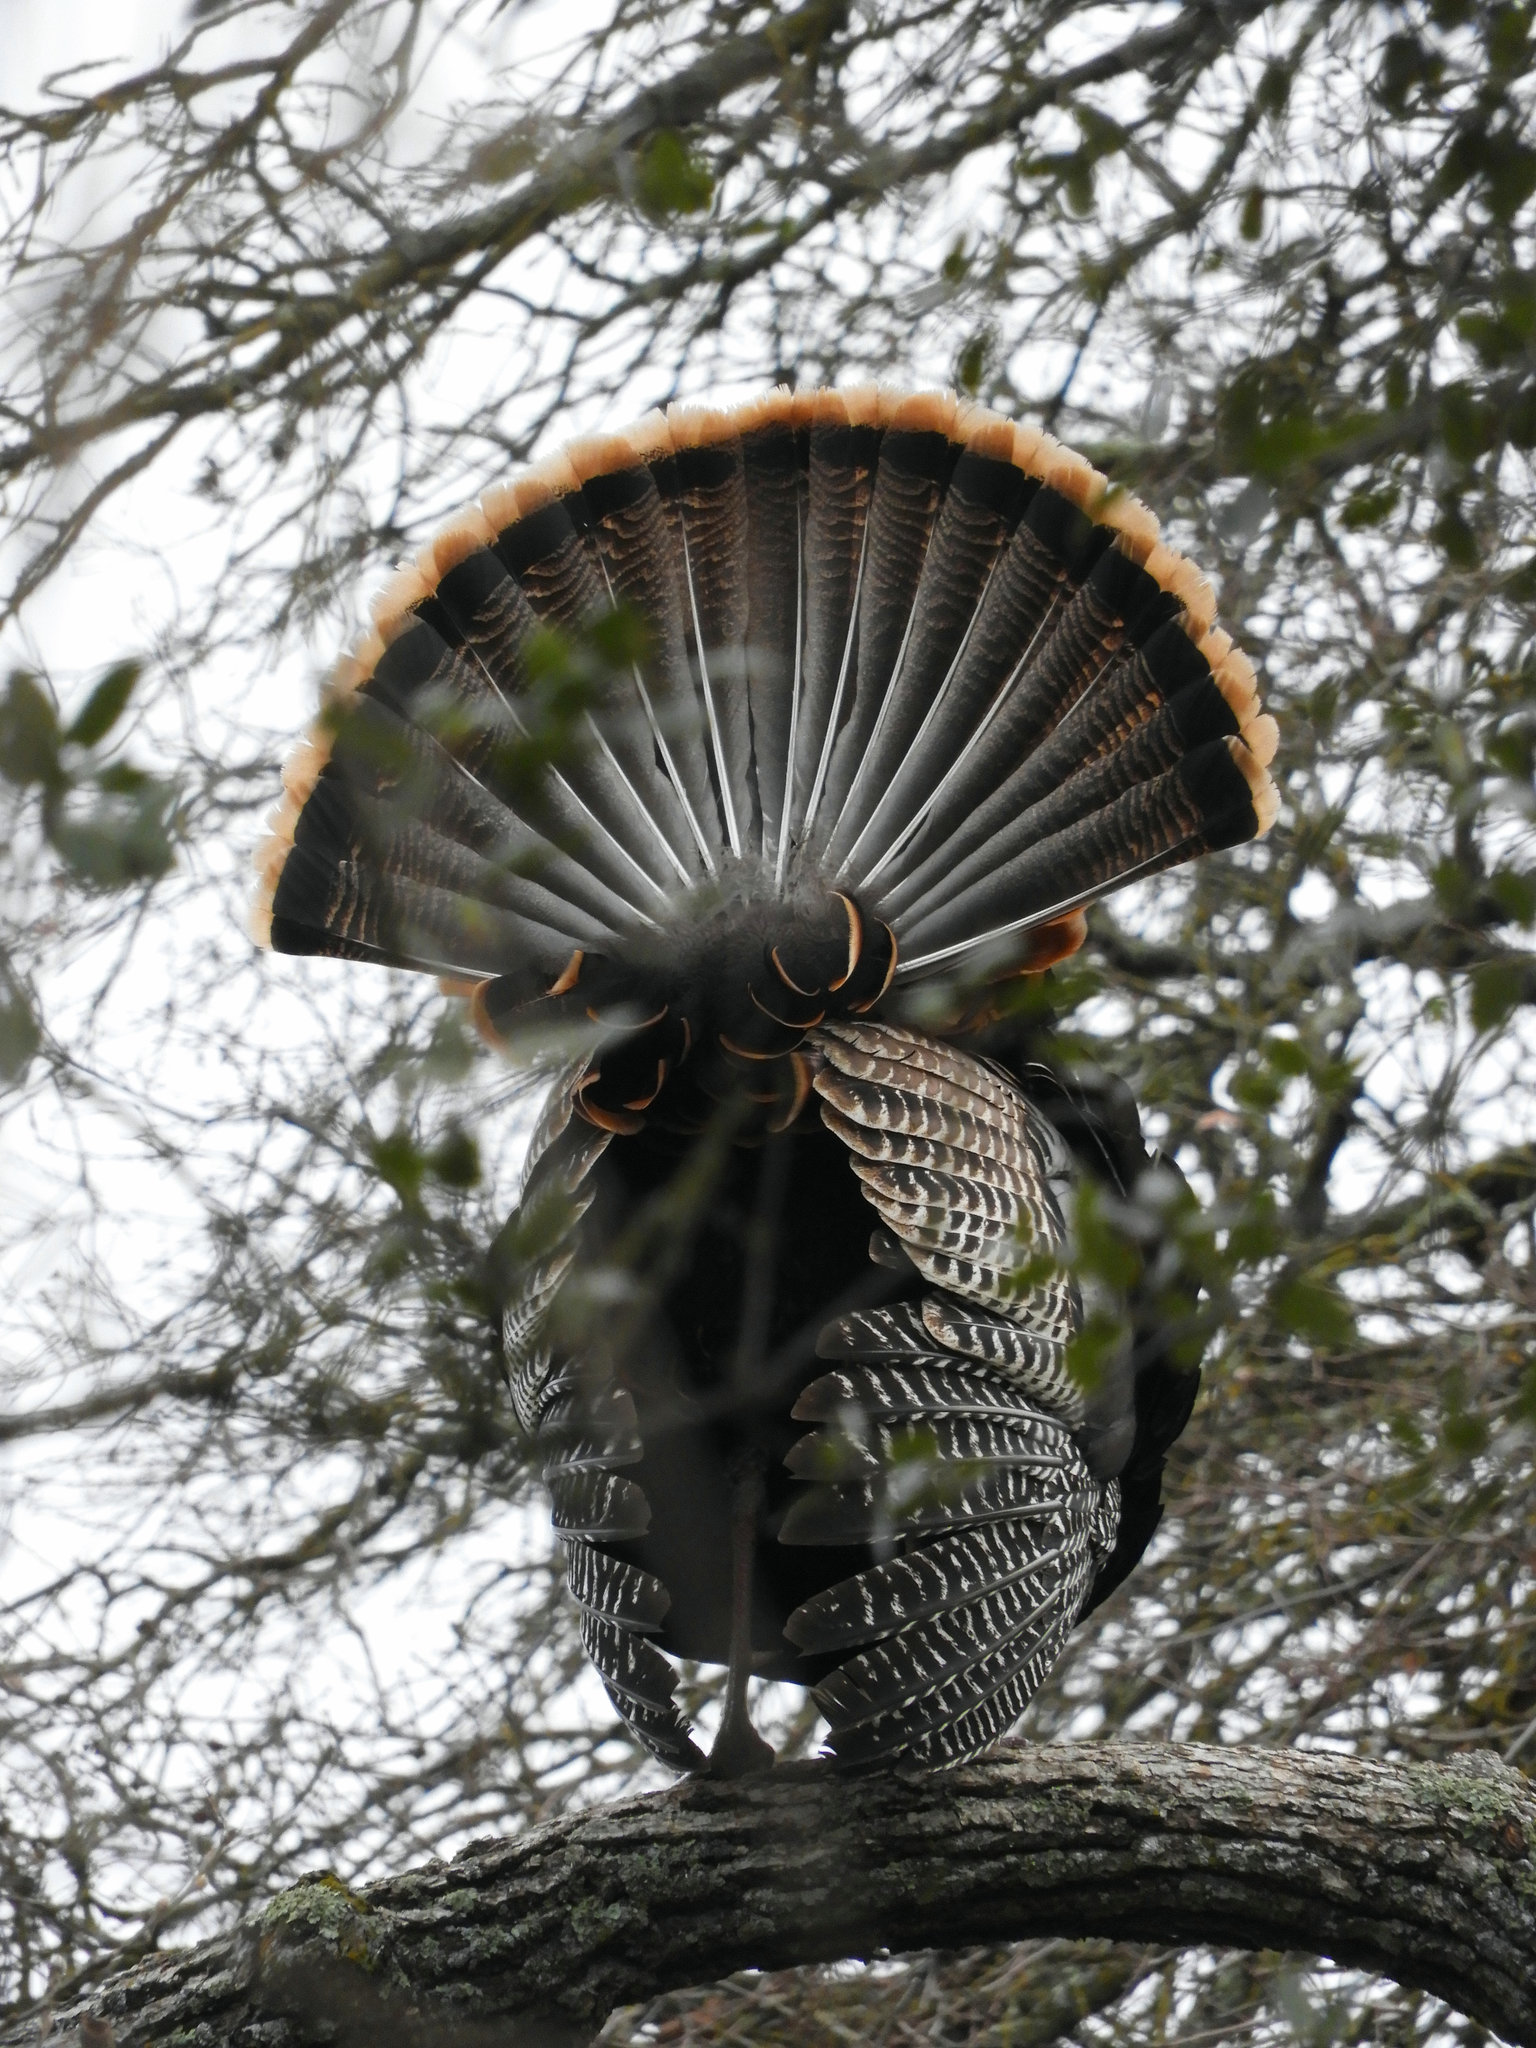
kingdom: Animalia
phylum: Chordata
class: Aves
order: Galliformes
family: Phasianidae
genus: Meleagris
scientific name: Meleagris gallopavo
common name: Wild turkey
